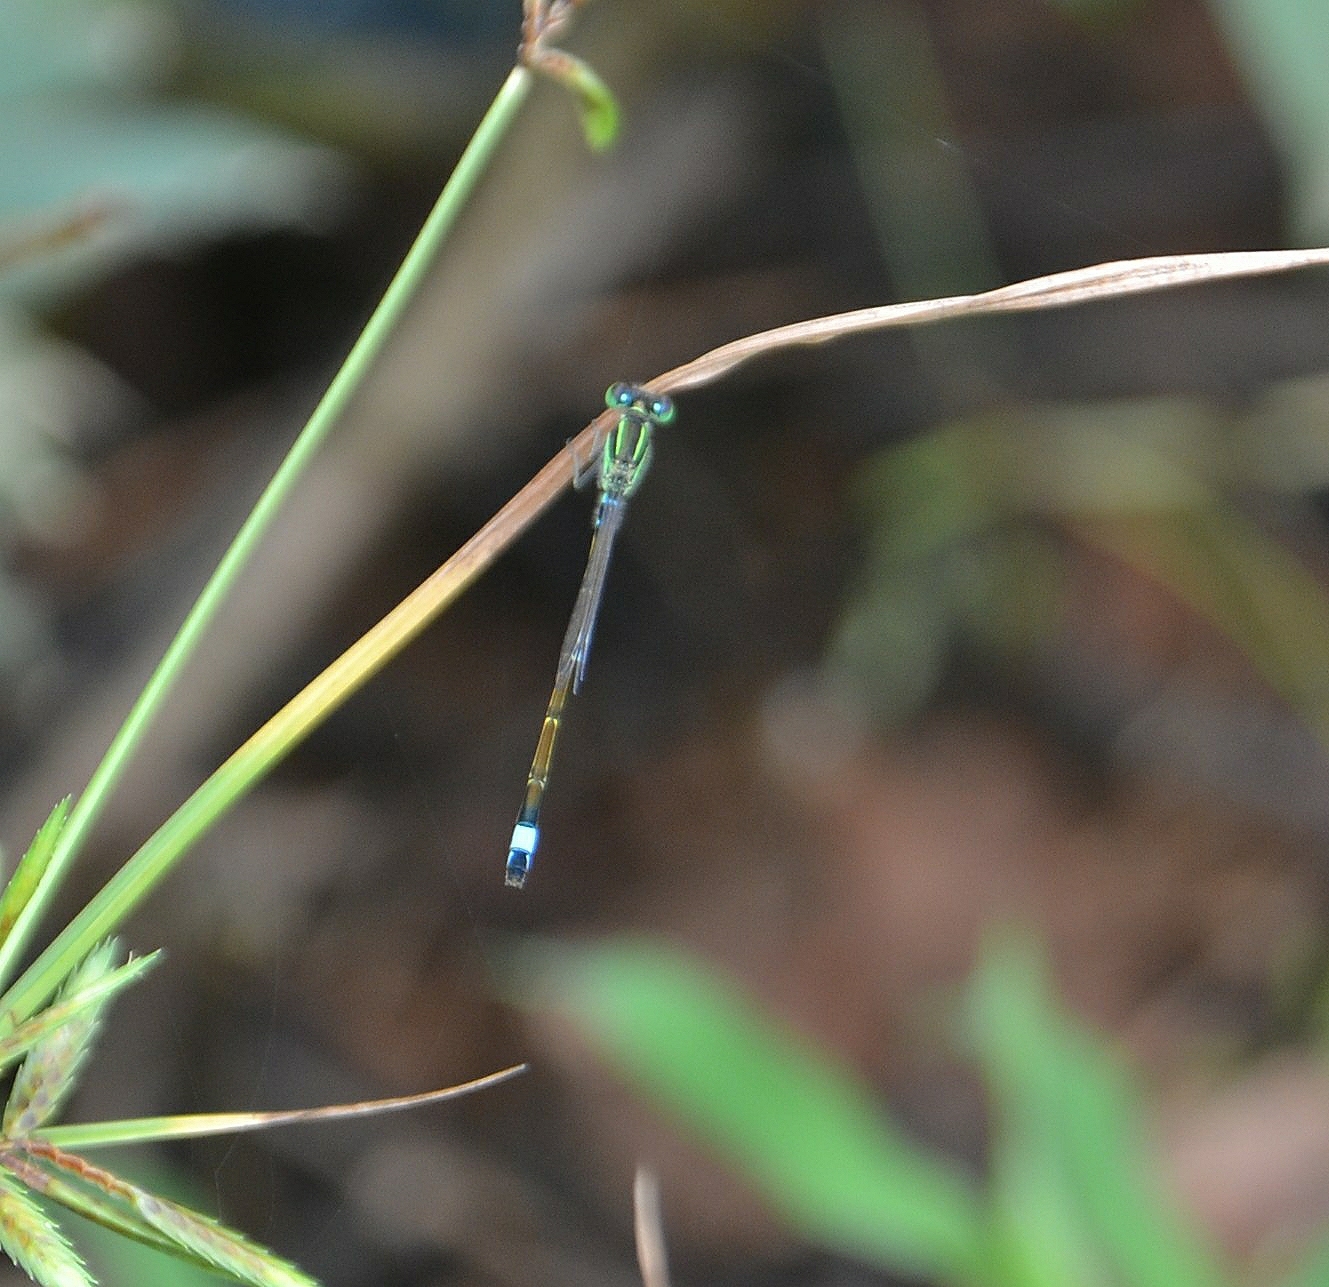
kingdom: Animalia
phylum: Arthropoda
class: Insecta
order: Odonata
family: Coenagrionidae
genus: Ischnura
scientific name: Ischnura senegalensis
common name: Tropical bluetail
